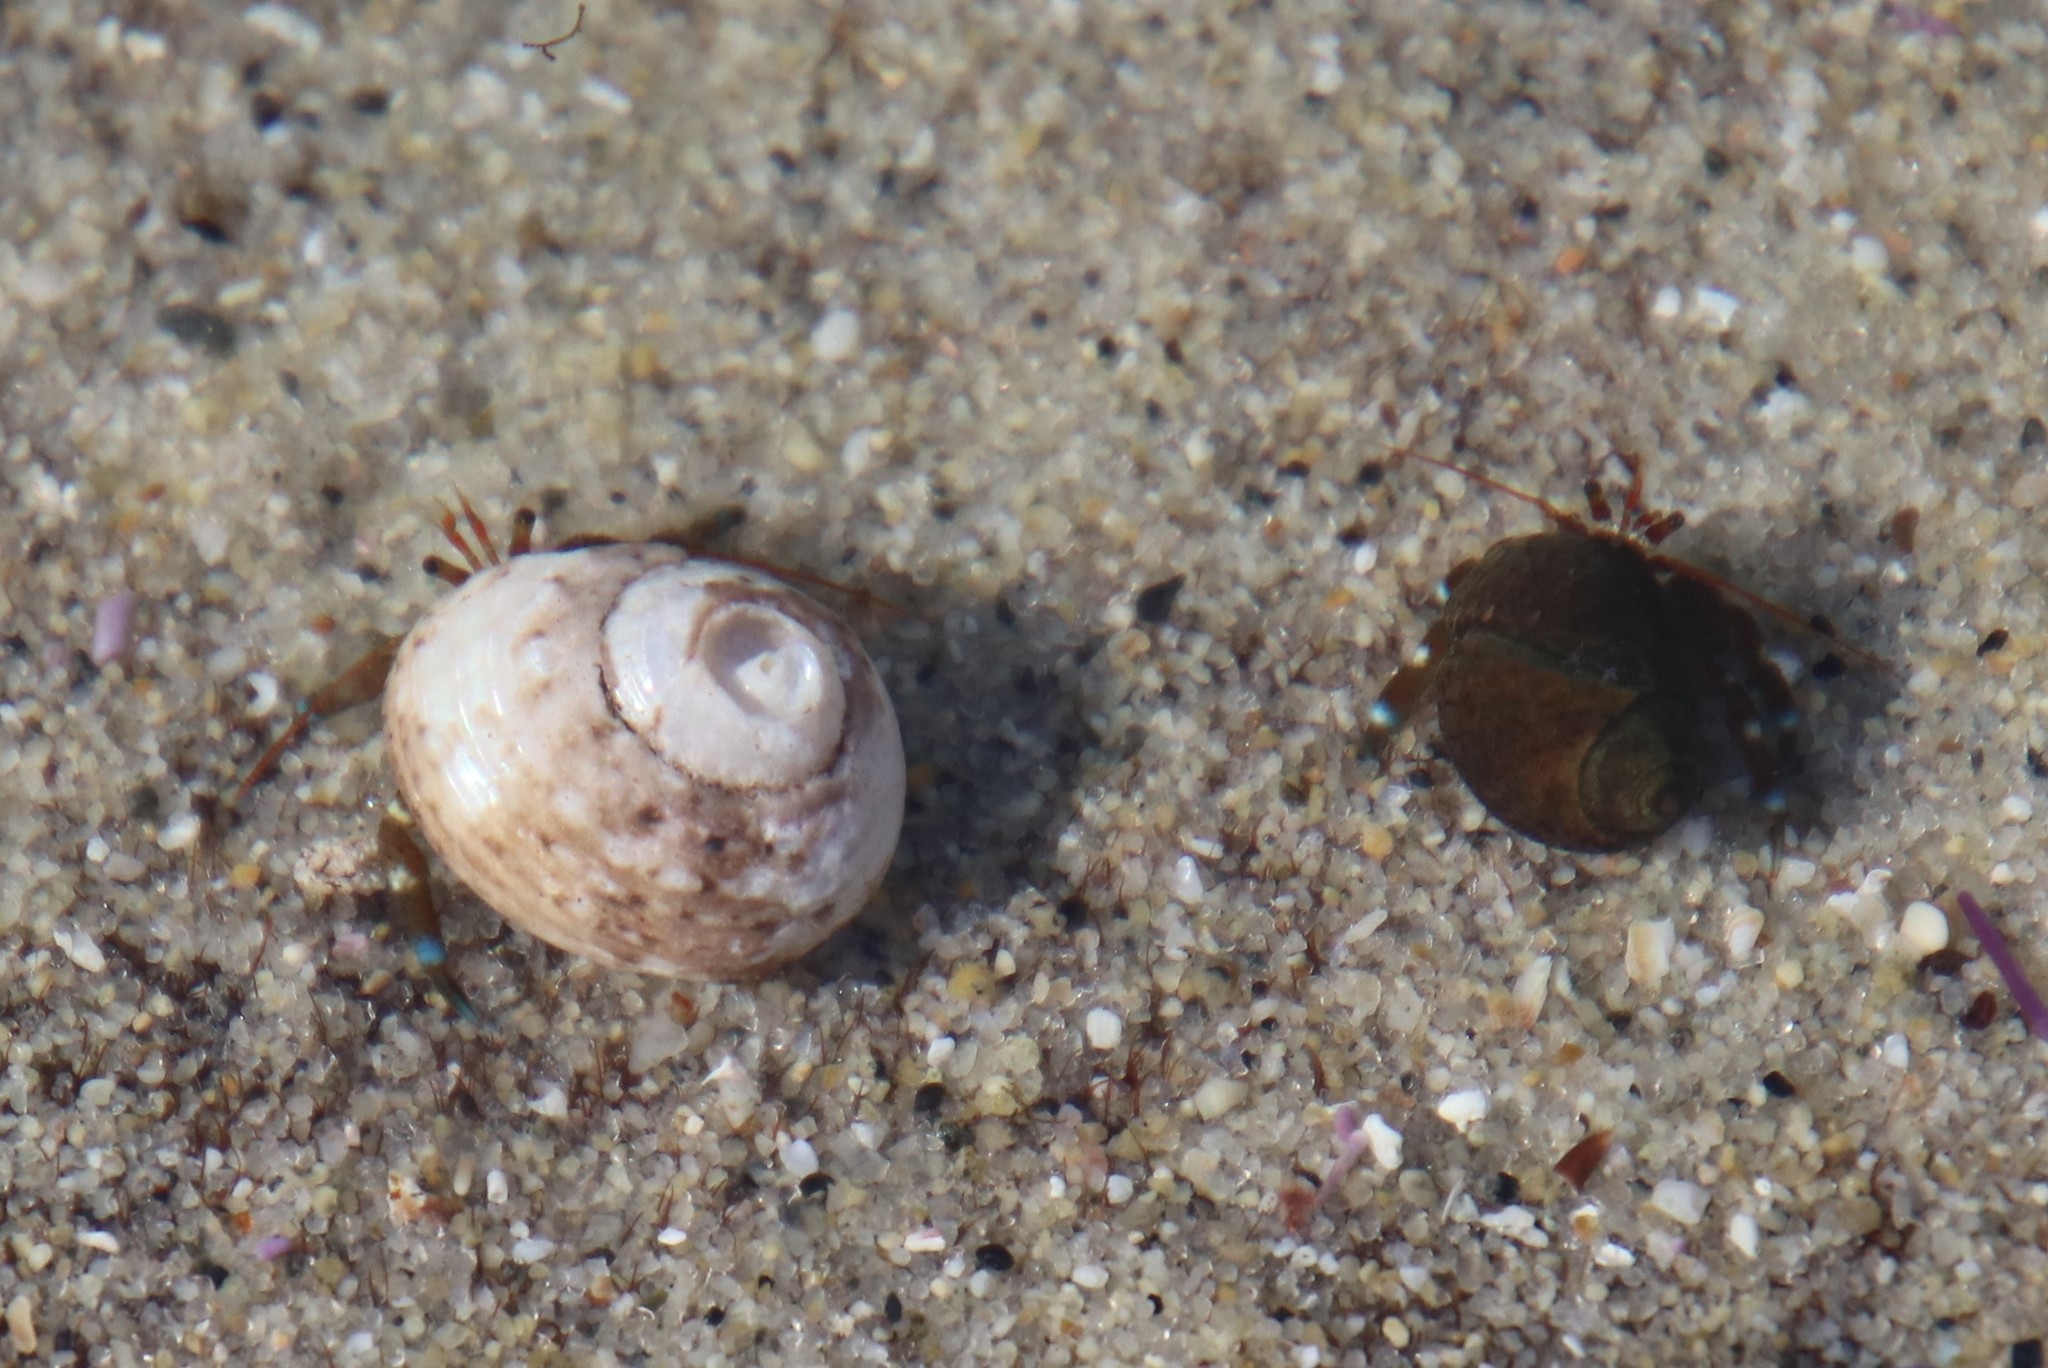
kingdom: Animalia
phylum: Arthropoda
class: Malacostraca
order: Decapoda
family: Paguridae
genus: Pagurus
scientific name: Pagurus samuelis
